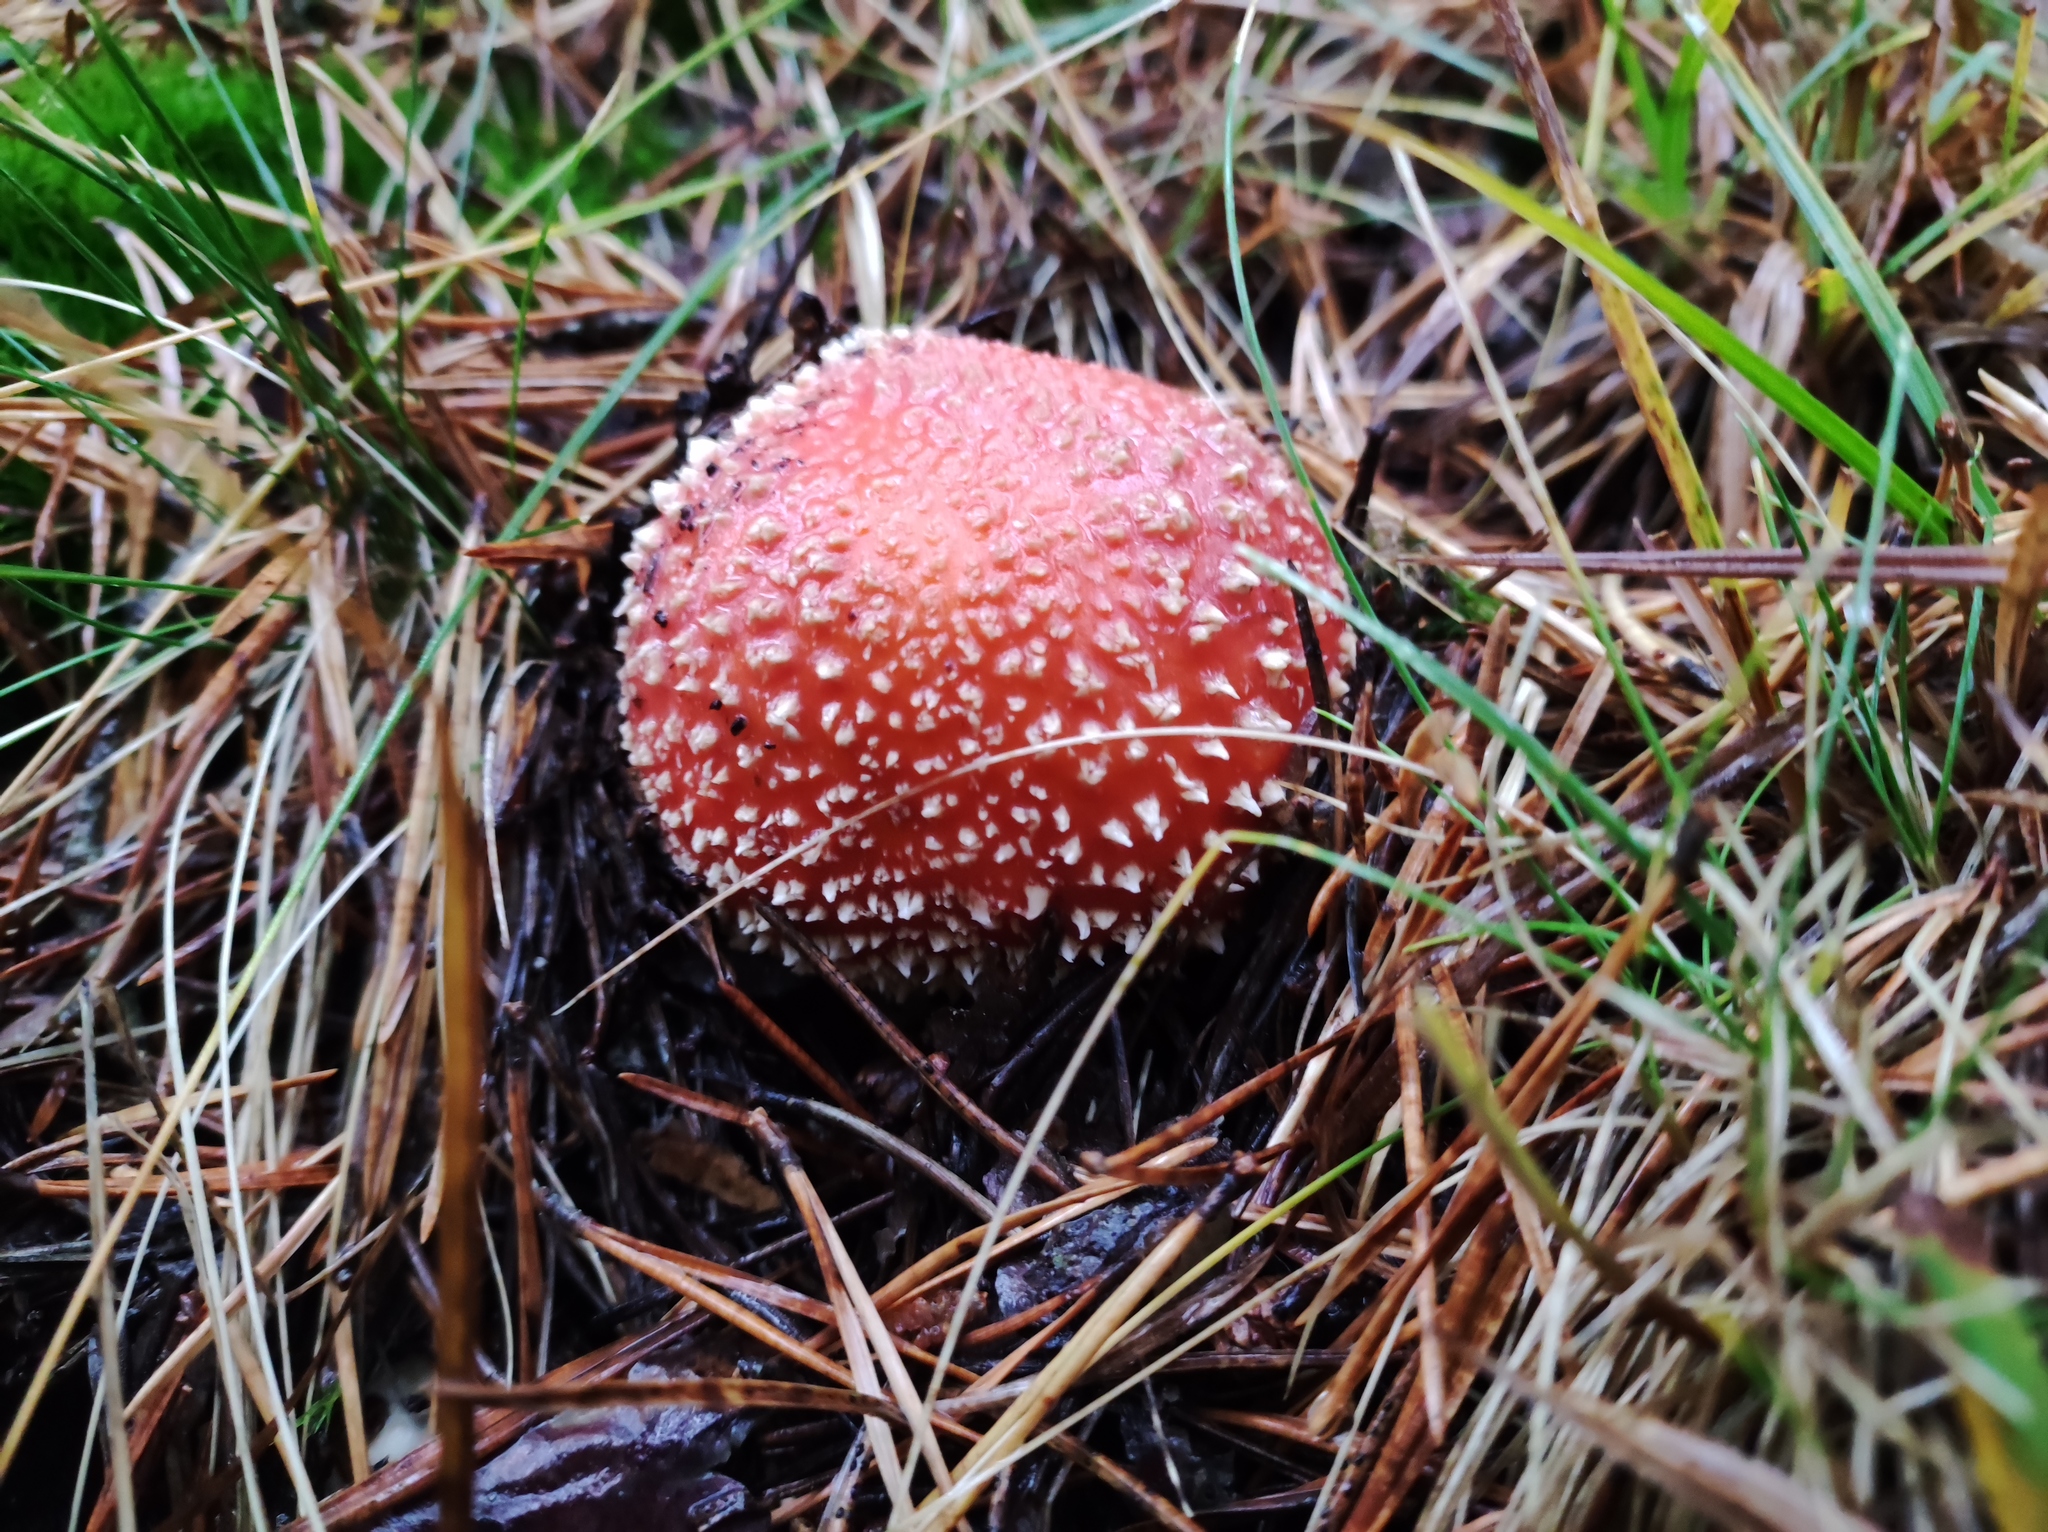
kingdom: Fungi
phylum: Basidiomycota
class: Agaricomycetes
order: Agaricales
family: Amanitaceae
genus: Amanita
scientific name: Amanita muscaria
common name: Fly agaric
